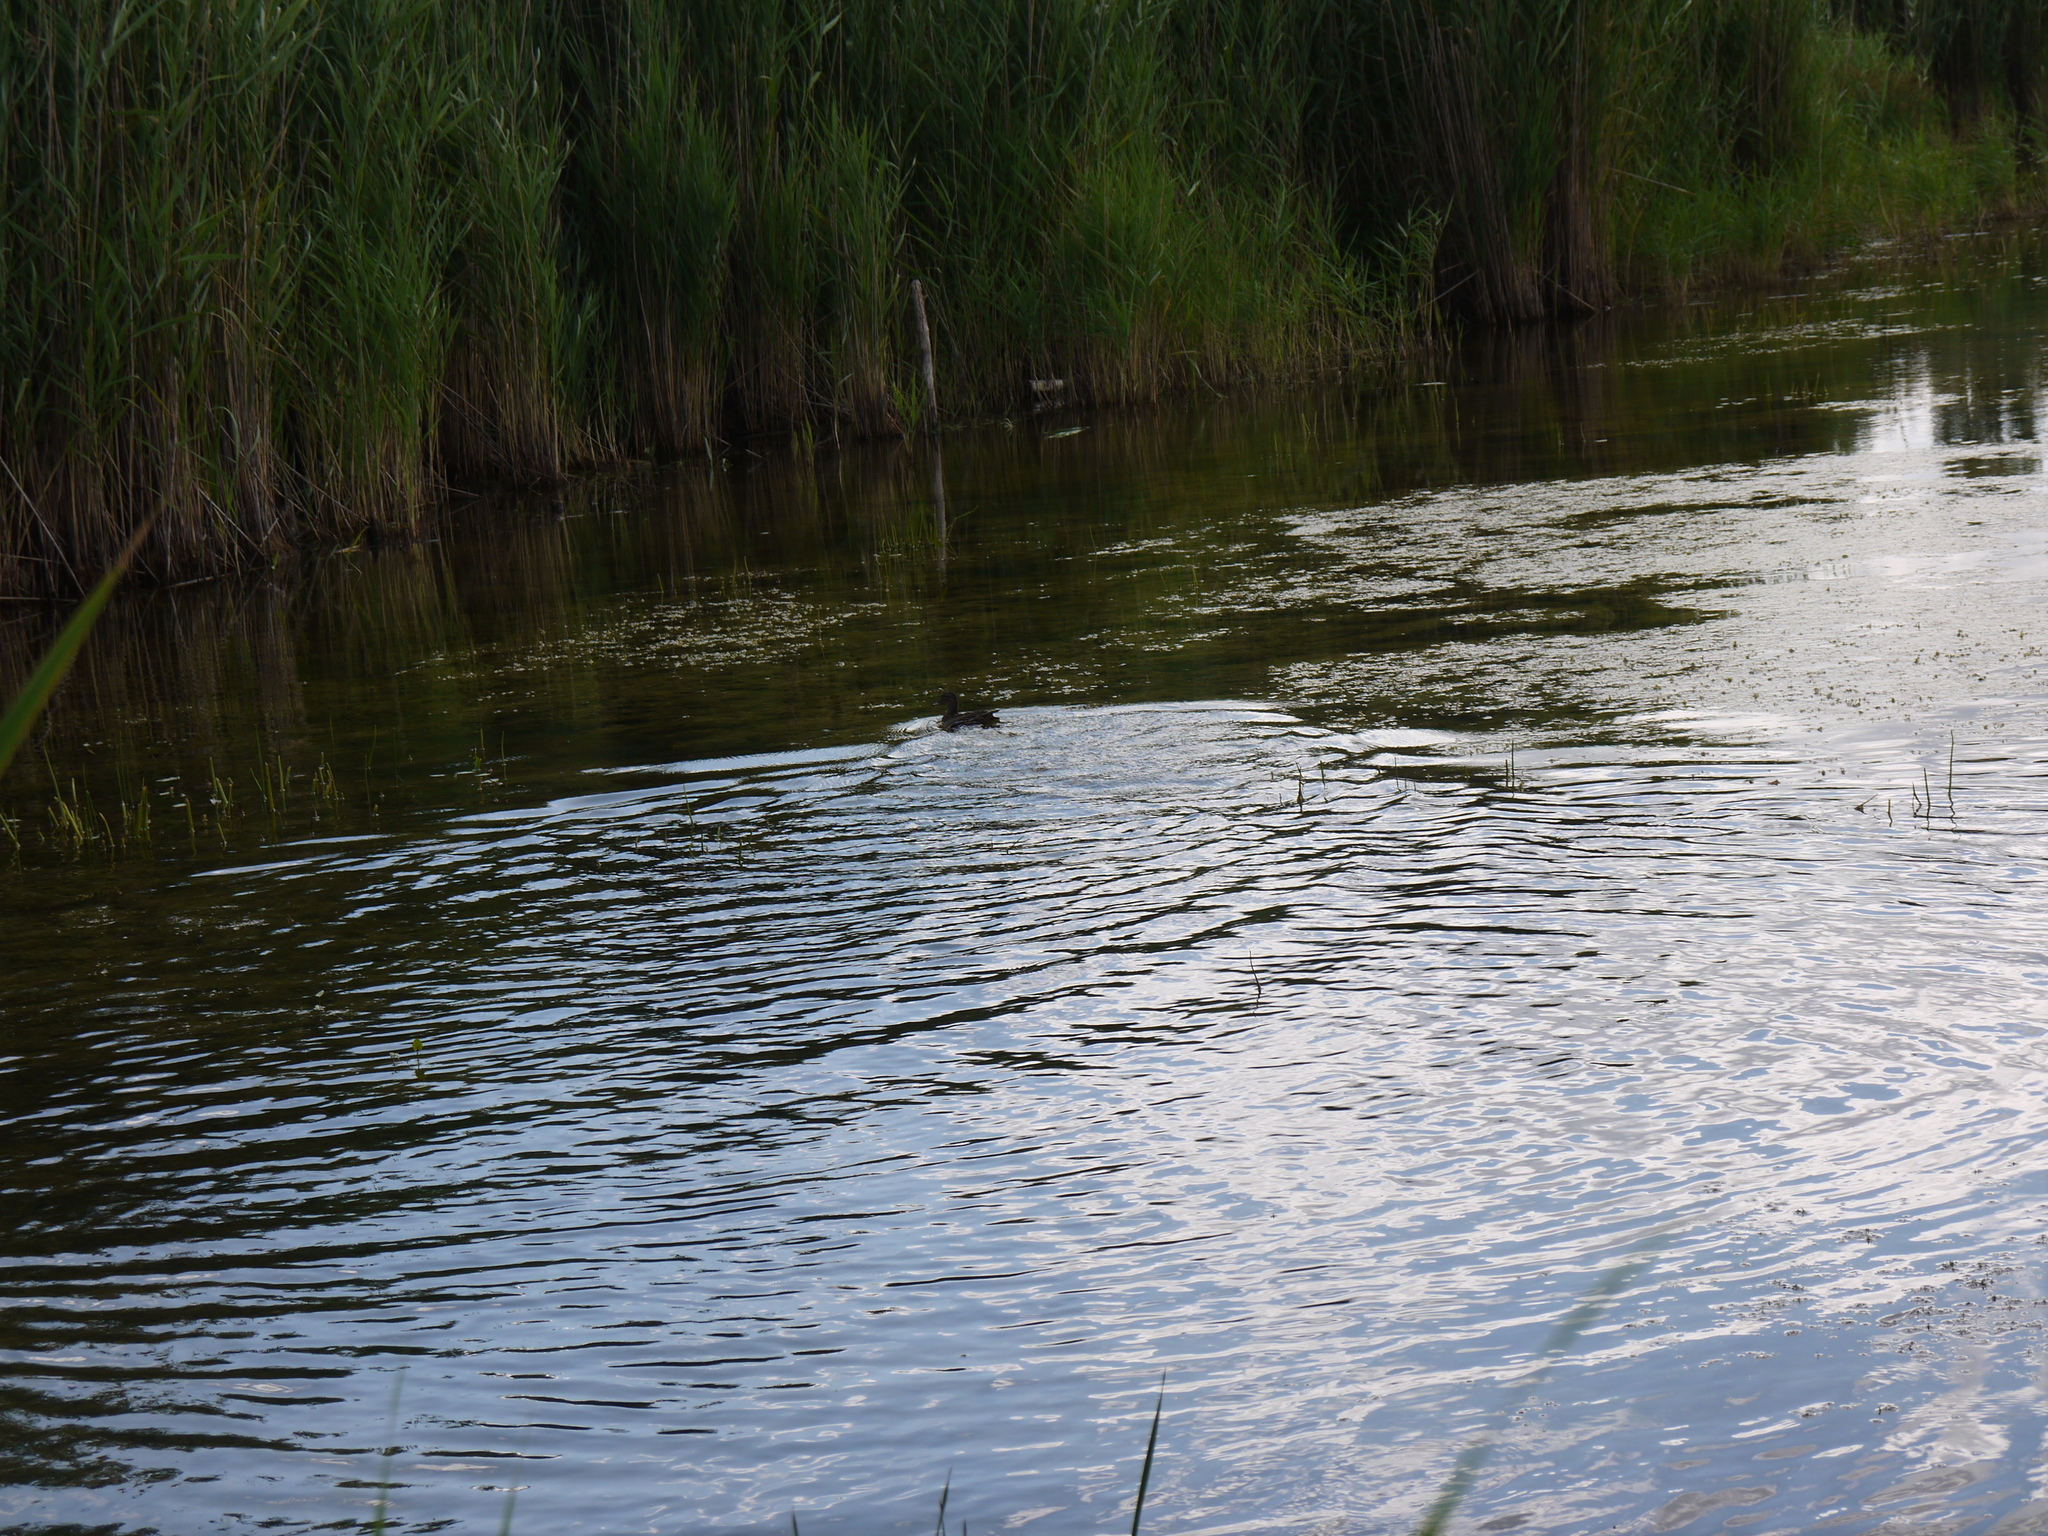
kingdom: Animalia
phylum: Chordata
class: Aves
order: Anseriformes
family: Anatidae
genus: Anas
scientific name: Anas crecca
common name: Eurasian teal
